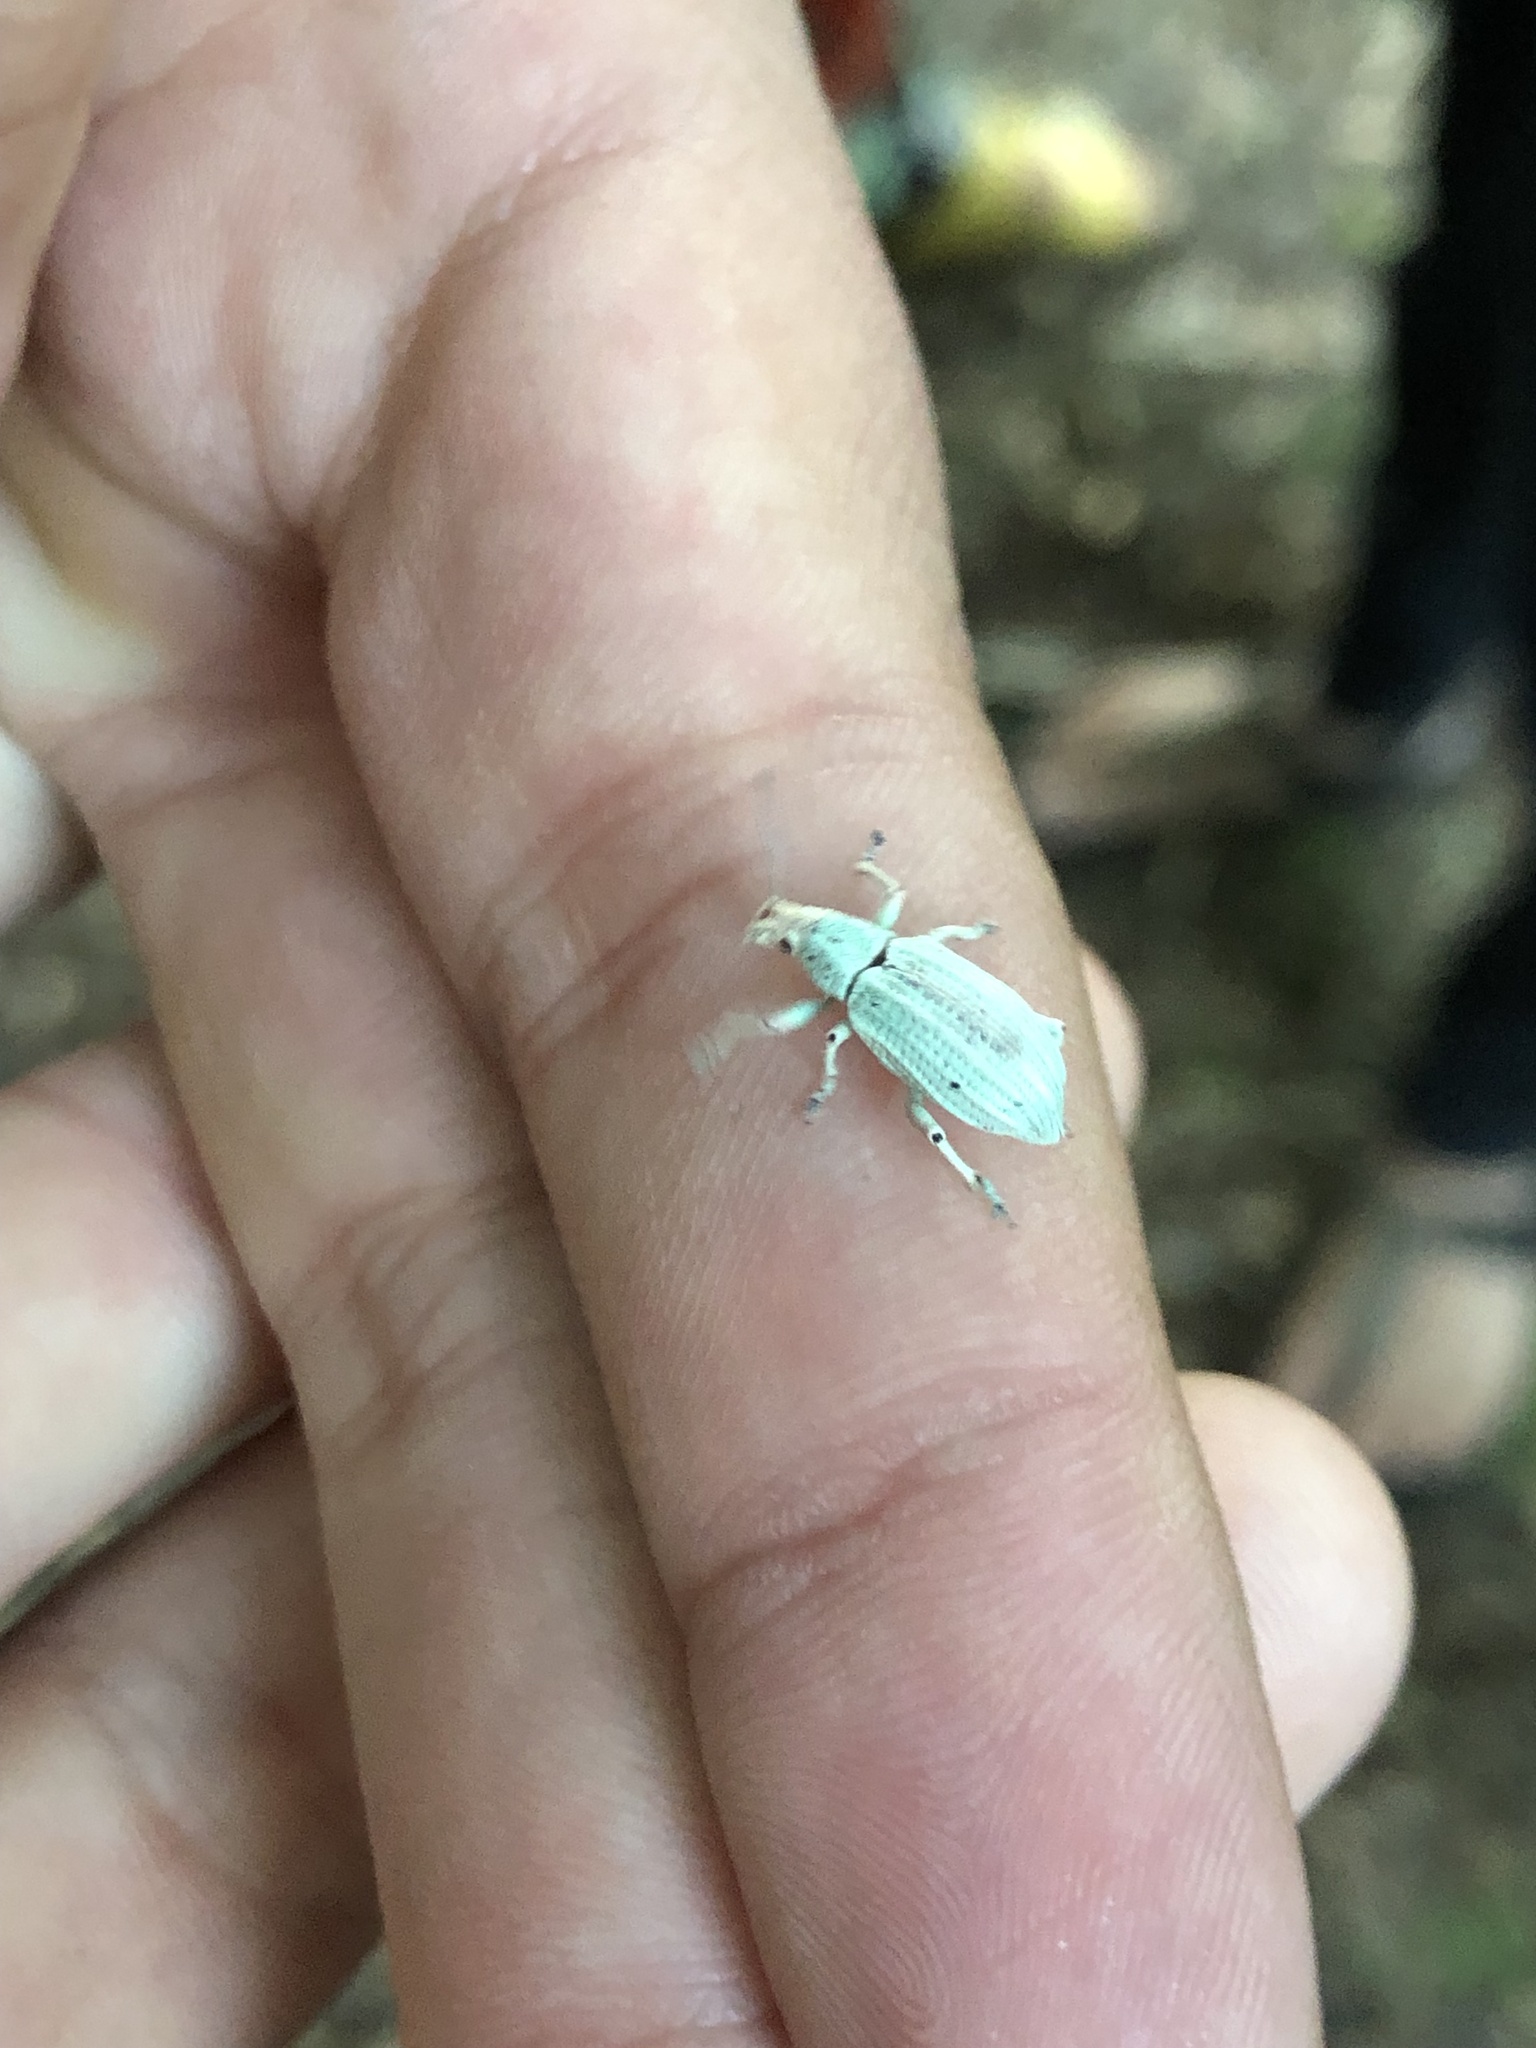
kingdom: Animalia
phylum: Arthropoda
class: Insecta
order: Coleoptera
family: Curculionidae
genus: Compsus
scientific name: Compsus auricephalus
